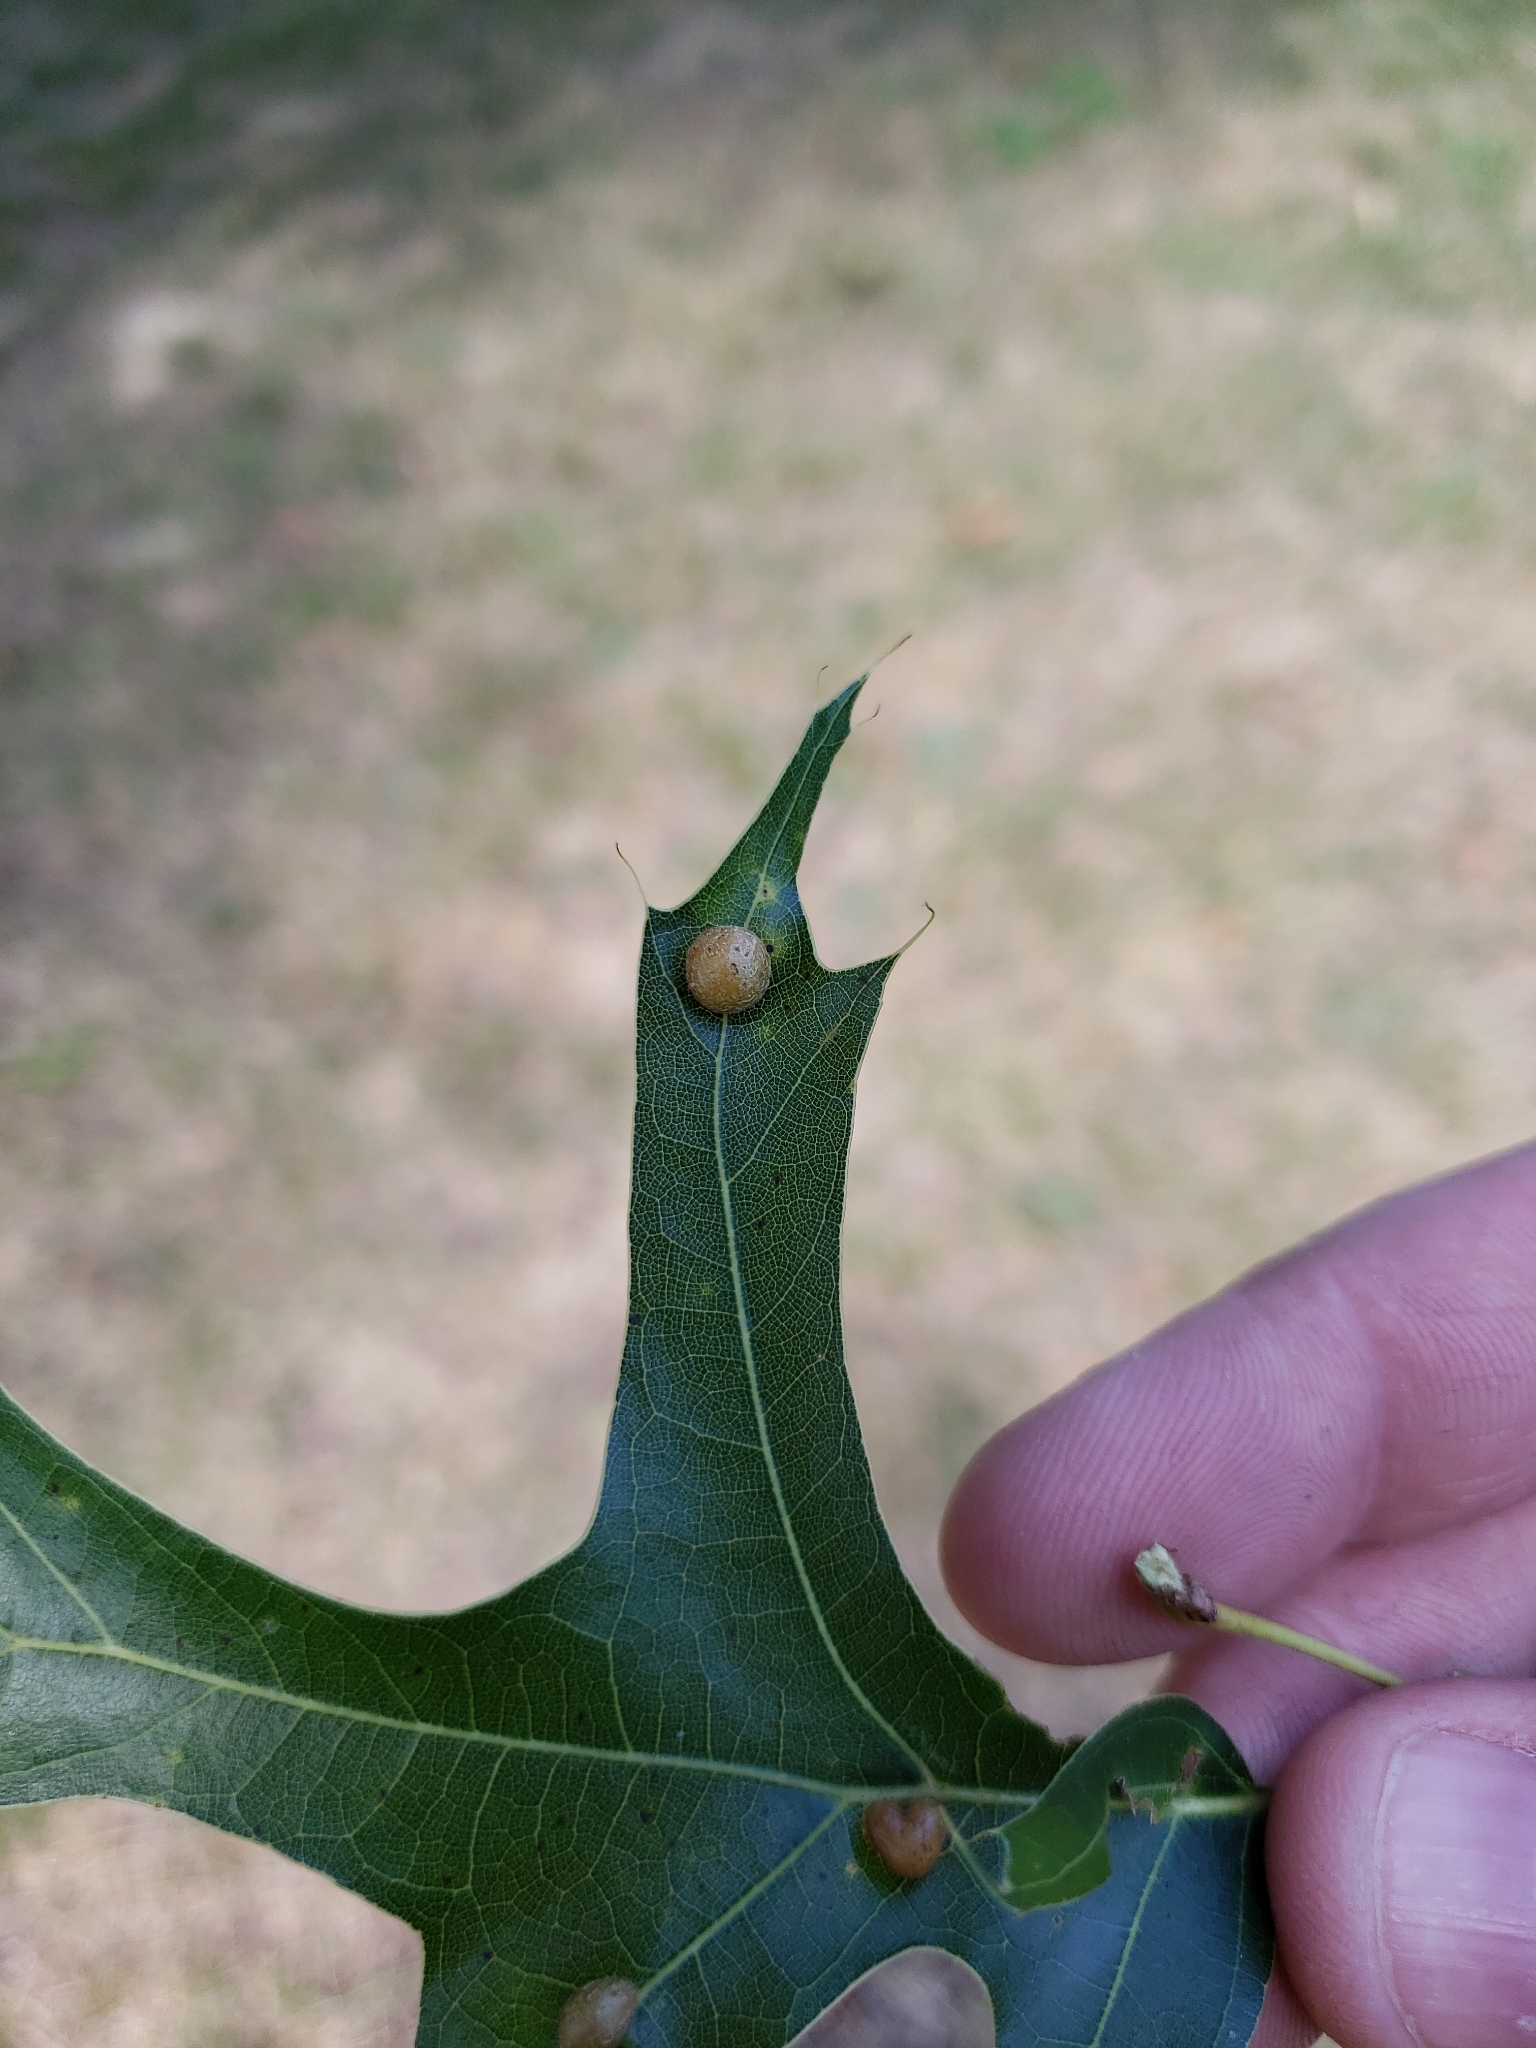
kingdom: Animalia
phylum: Arthropoda
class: Insecta
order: Diptera
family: Cecidomyiidae
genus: Polystepha
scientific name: Polystepha pilulae
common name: Oak leaf gall midge
